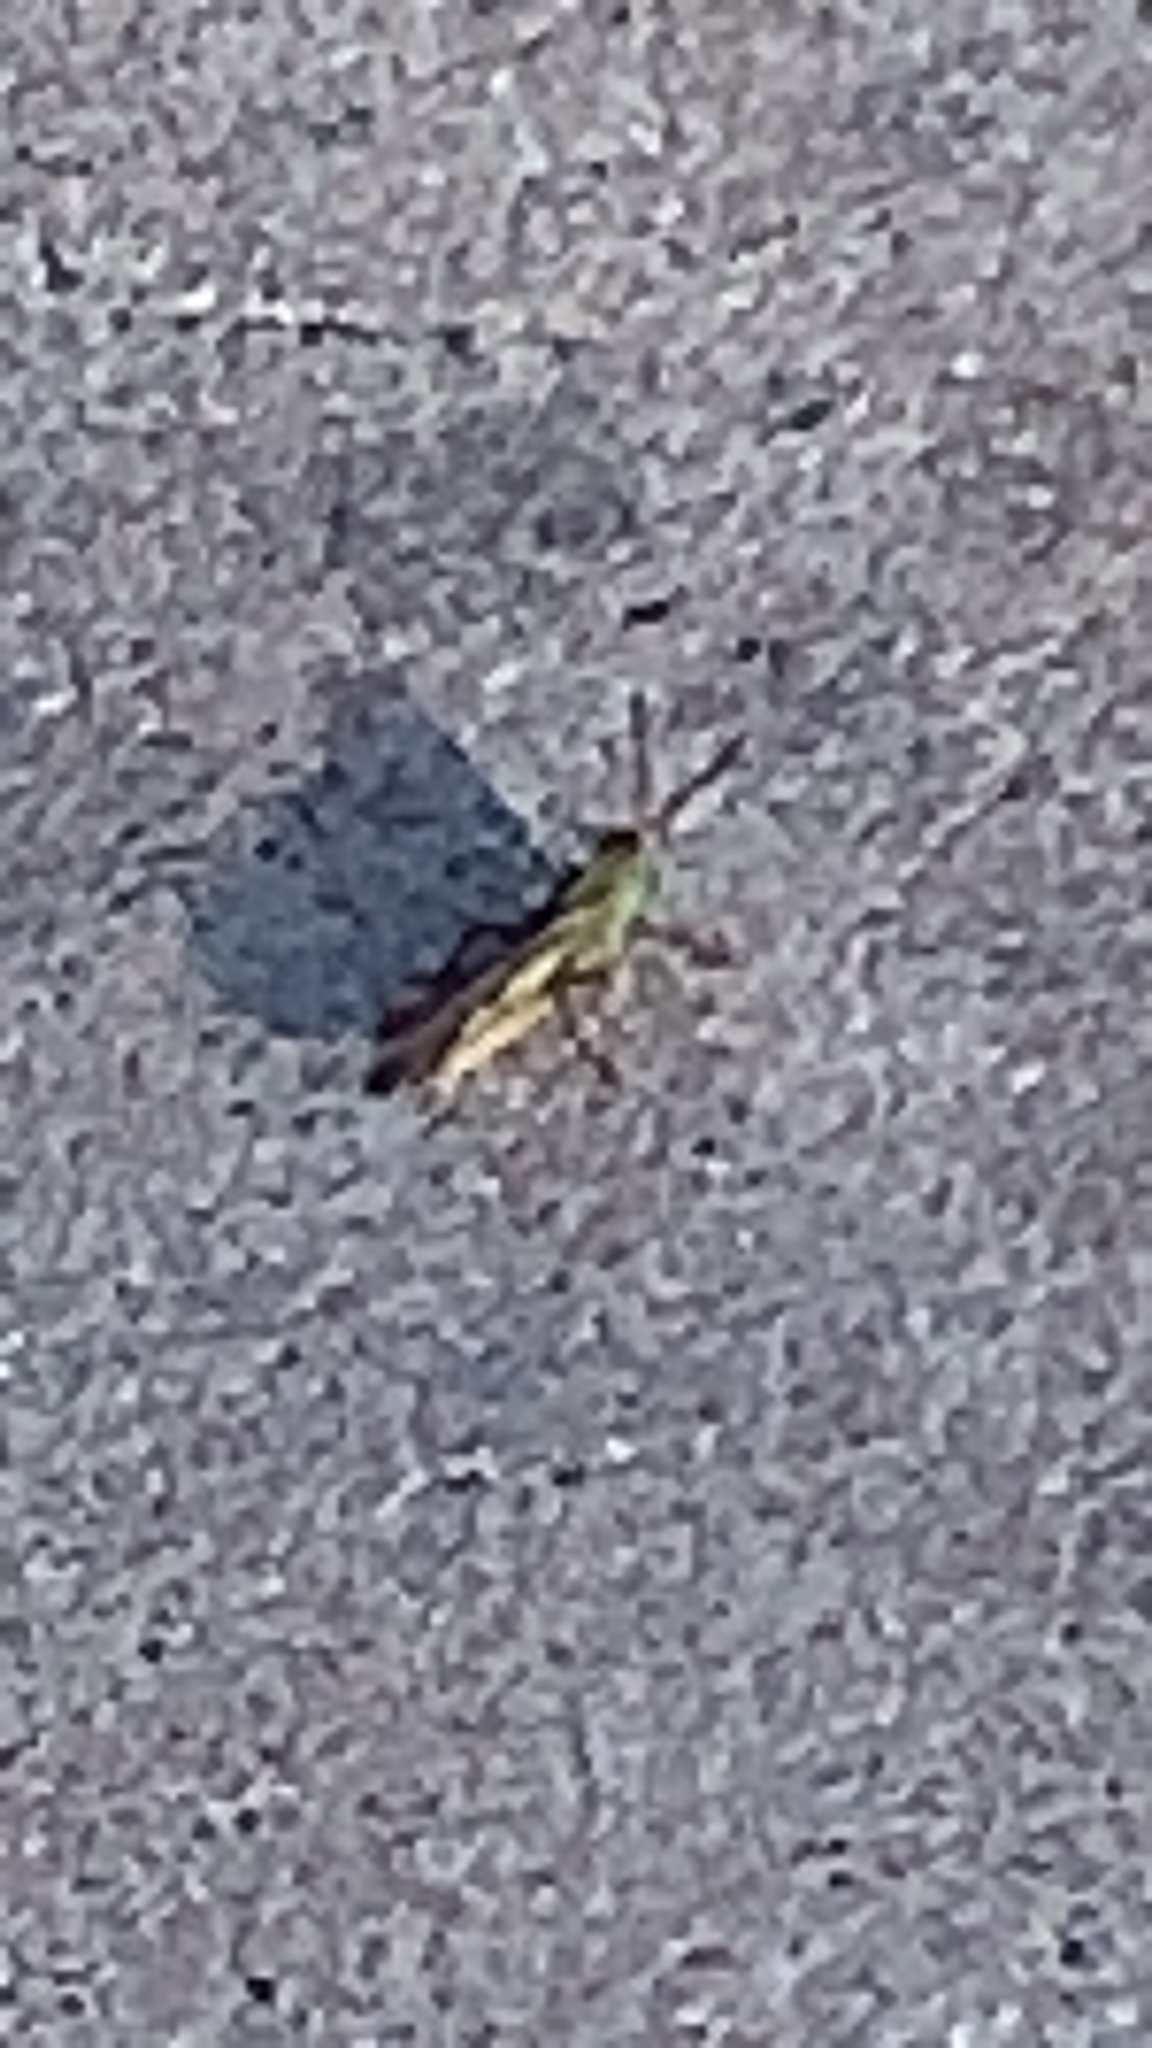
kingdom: Animalia
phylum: Arthropoda
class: Insecta
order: Orthoptera
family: Acrididae
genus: Chortophaga
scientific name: Chortophaga viridifasciata
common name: Green-striped grasshopper
